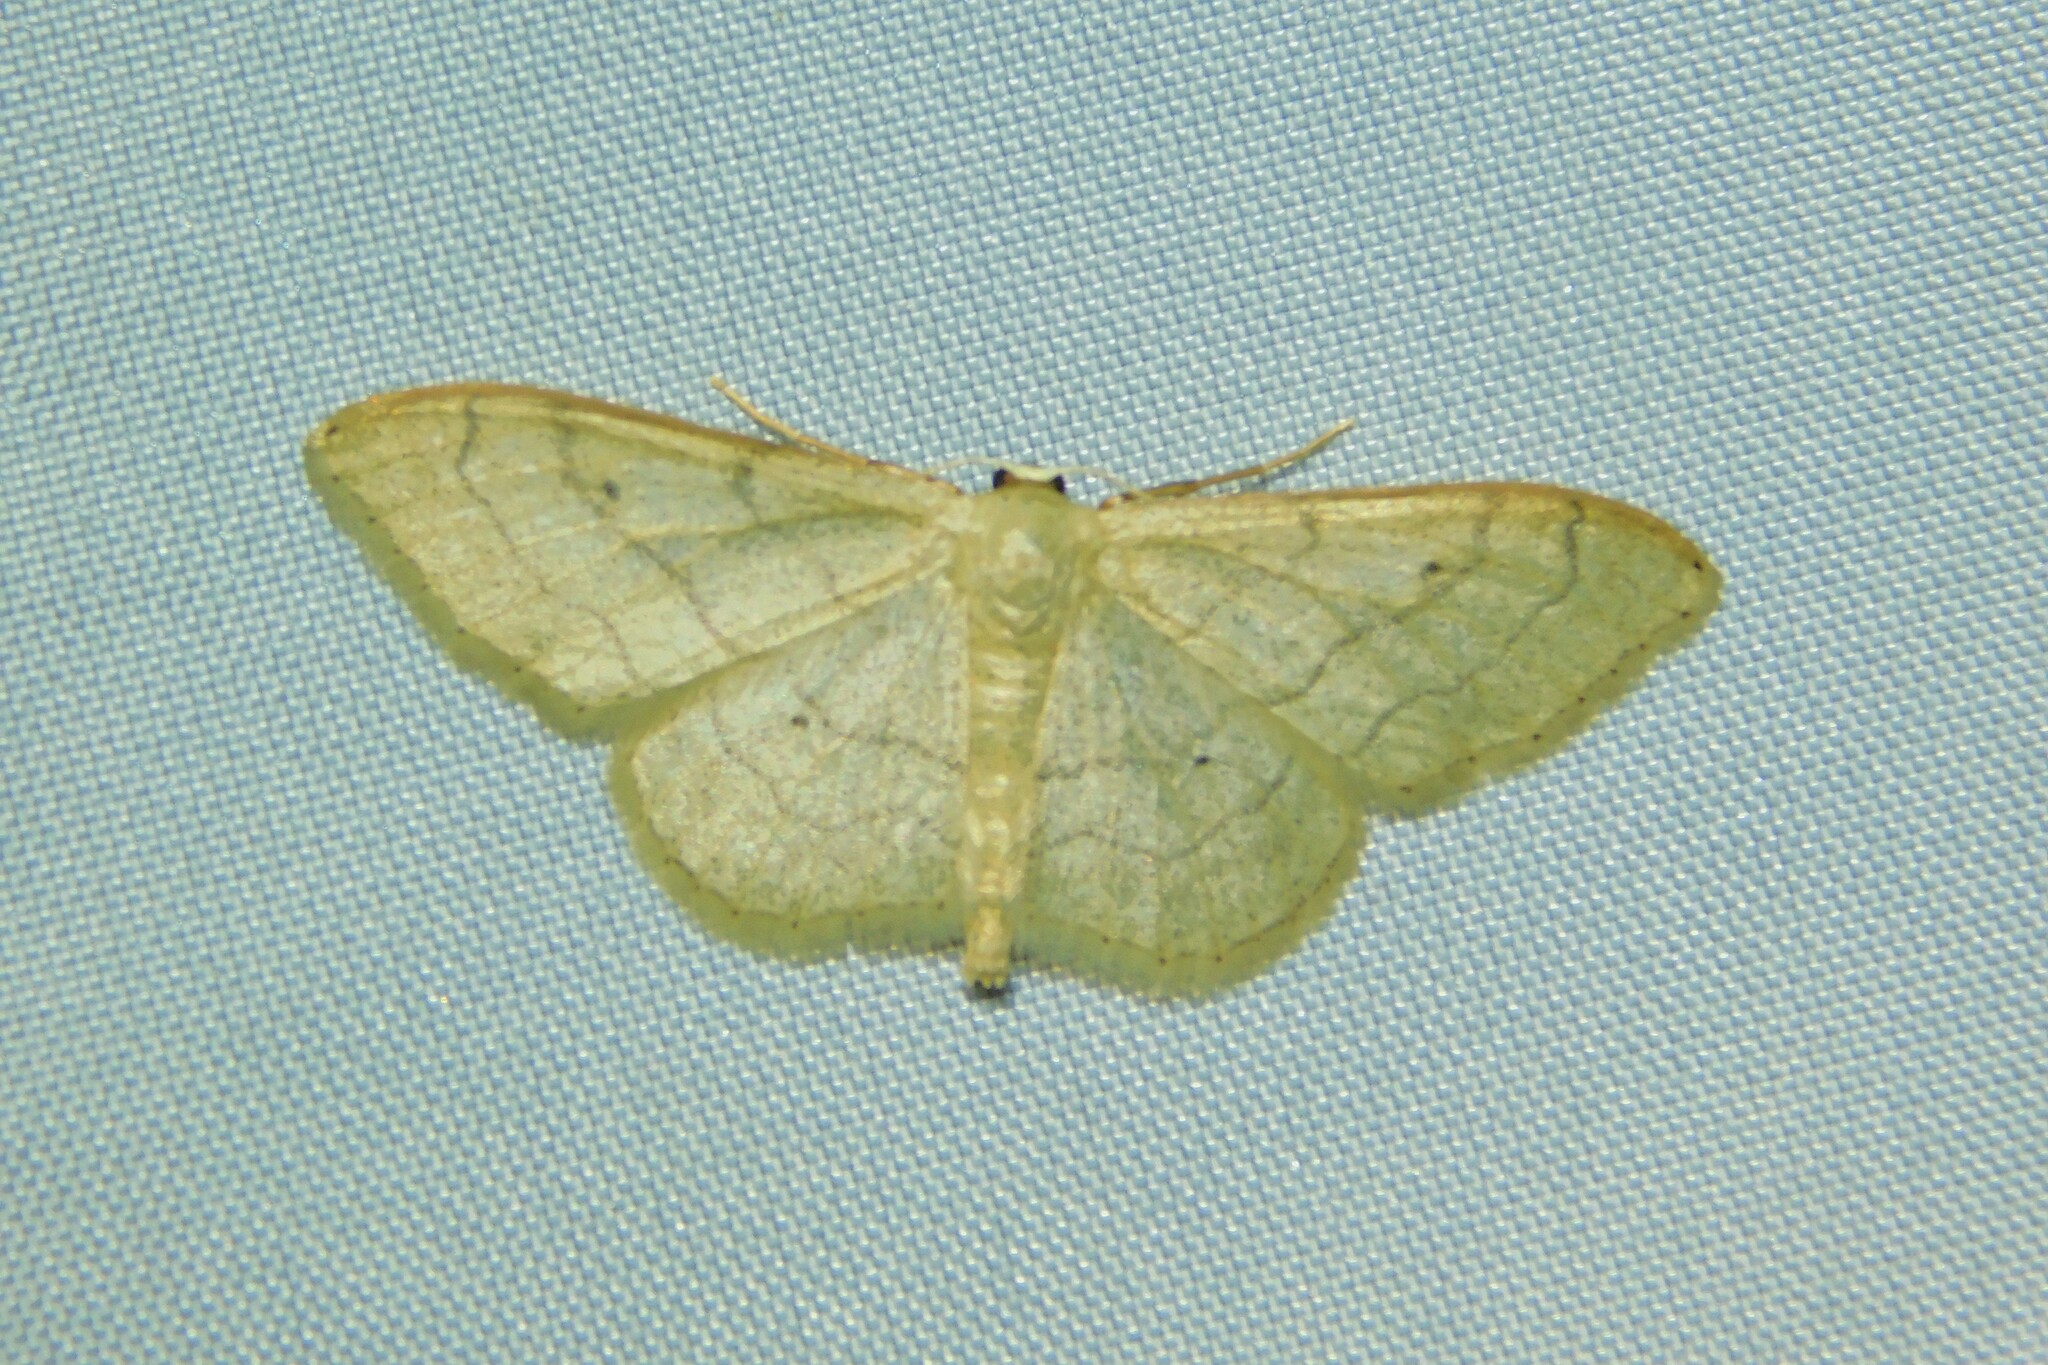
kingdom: Animalia
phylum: Arthropoda
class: Insecta
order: Lepidoptera
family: Geometridae
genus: Idaea
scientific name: Idaea aversata
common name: Riband wave
